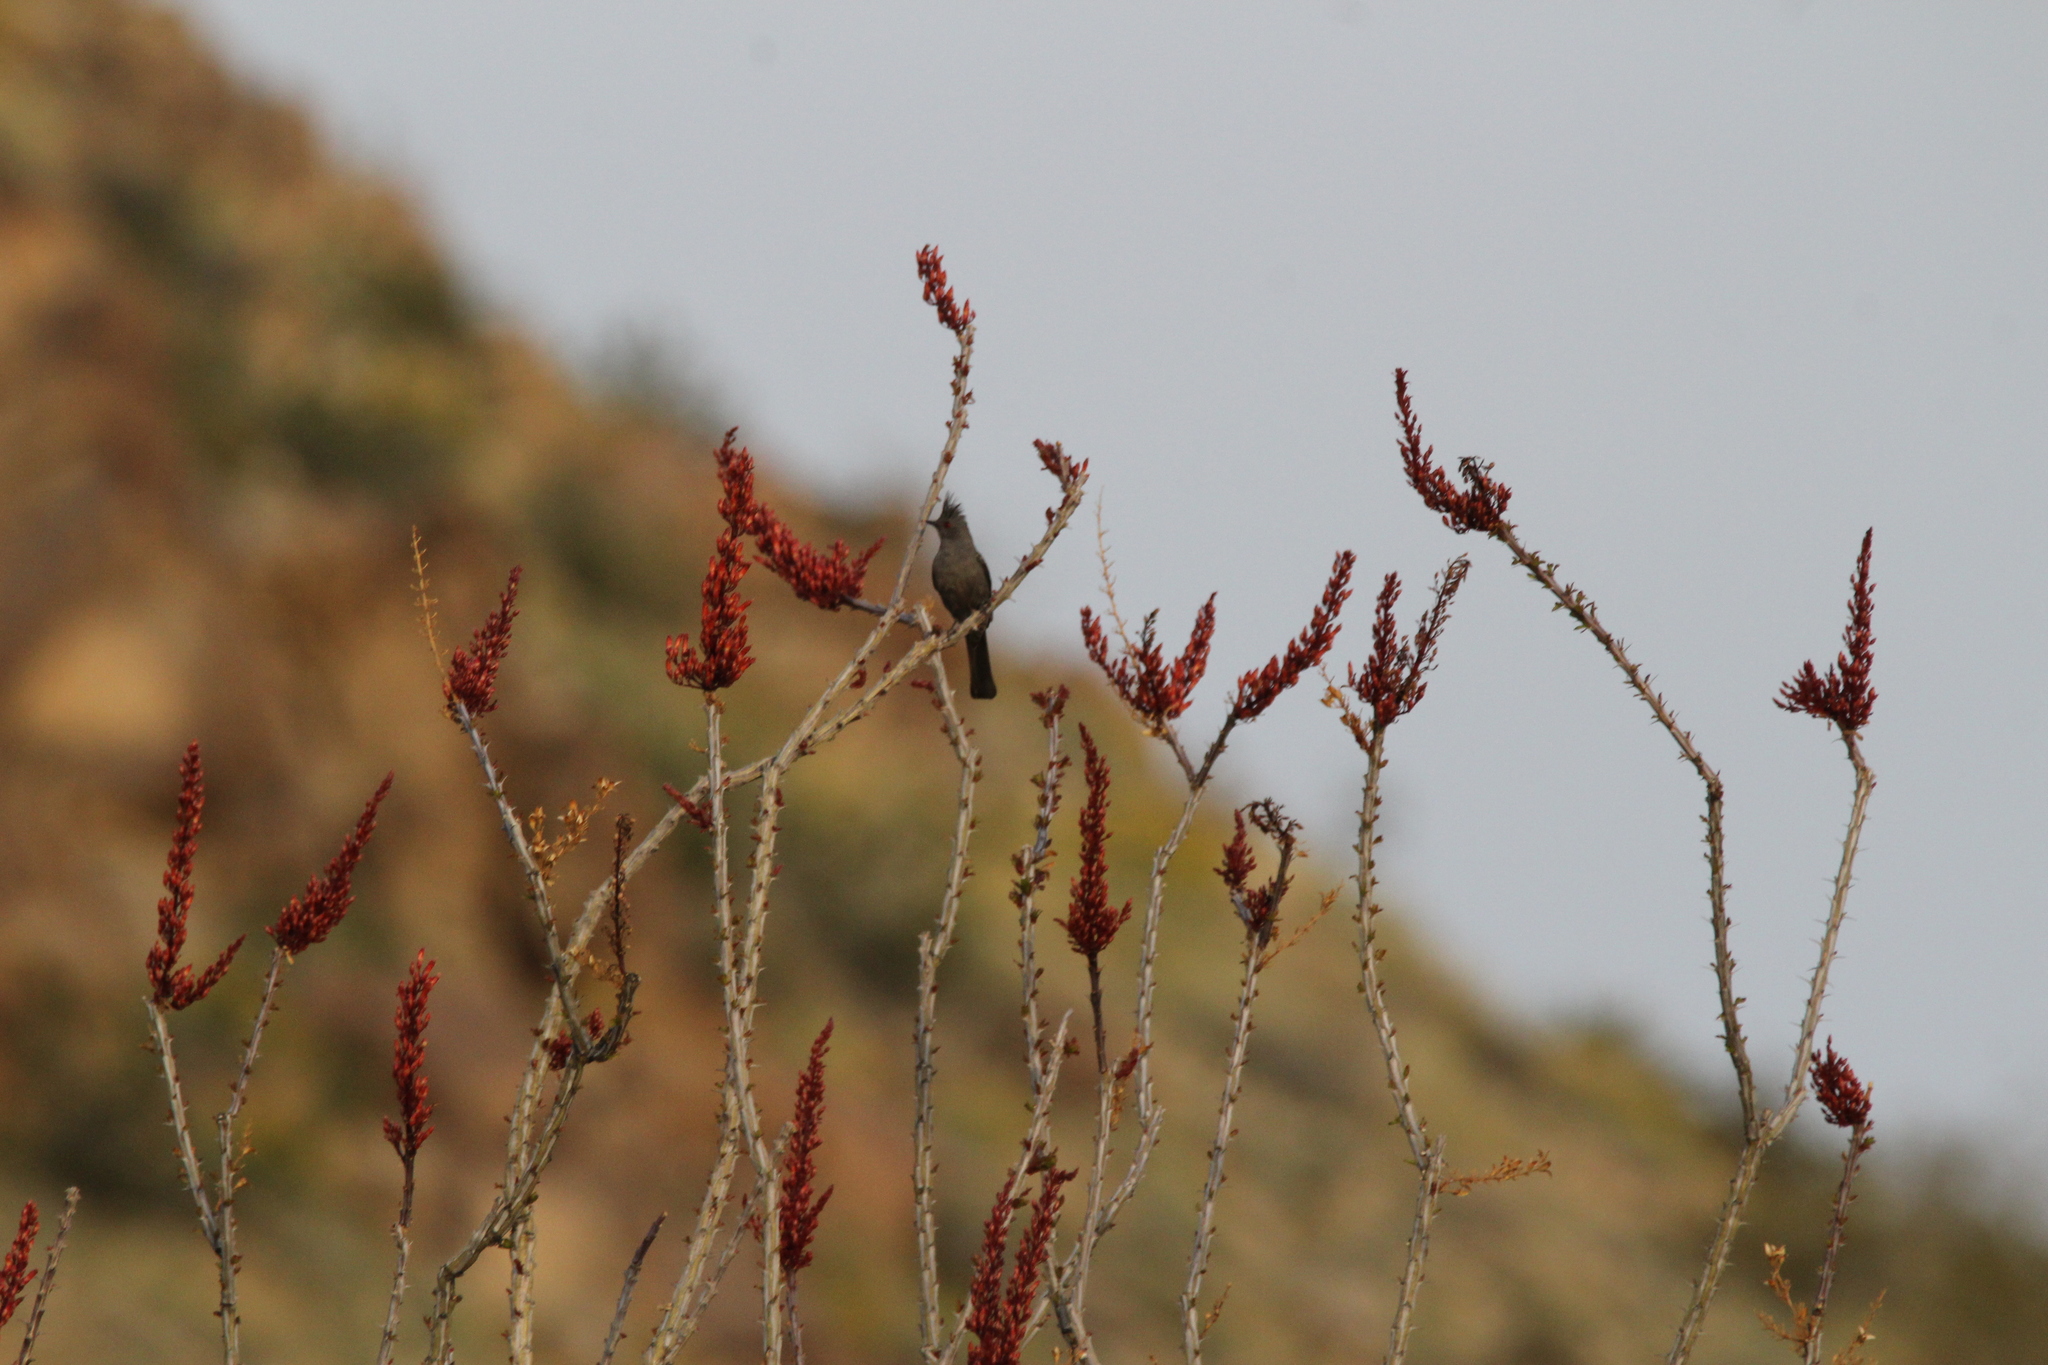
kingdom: Animalia
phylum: Chordata
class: Aves
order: Passeriformes
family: Ptilogonatidae
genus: Phainopepla
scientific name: Phainopepla nitens
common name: Phainopepla
